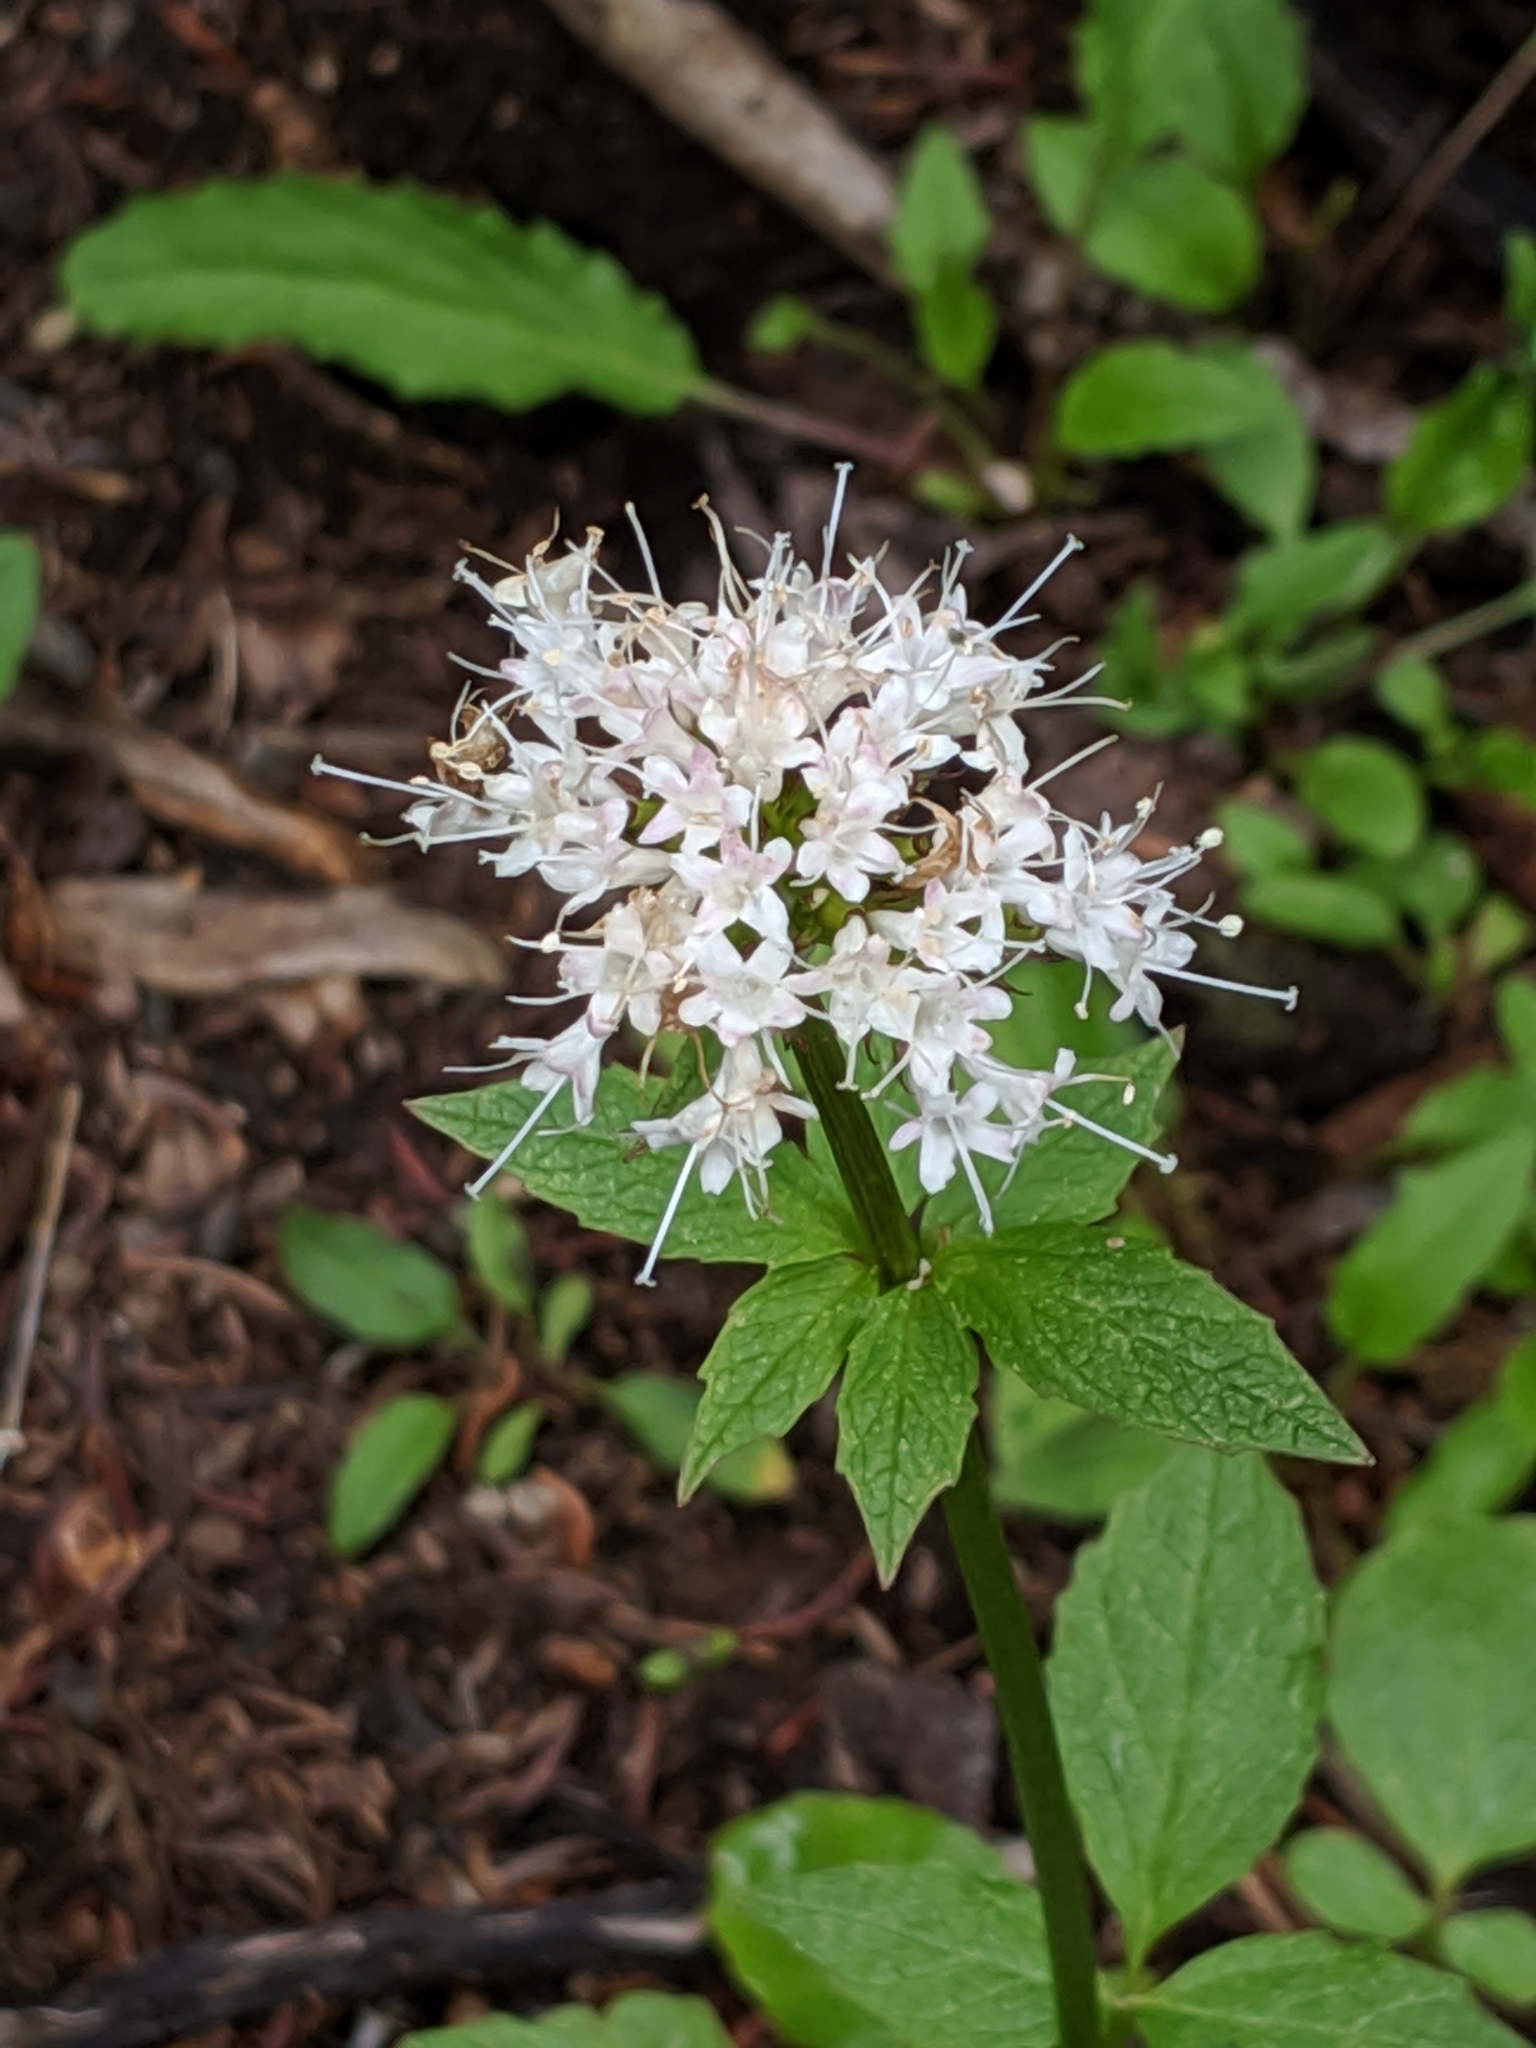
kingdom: Plantae
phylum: Tracheophyta
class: Magnoliopsida
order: Dipsacales
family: Caprifoliaceae
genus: Valeriana
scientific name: Valeriana sitchensis
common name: Pacific valerian
